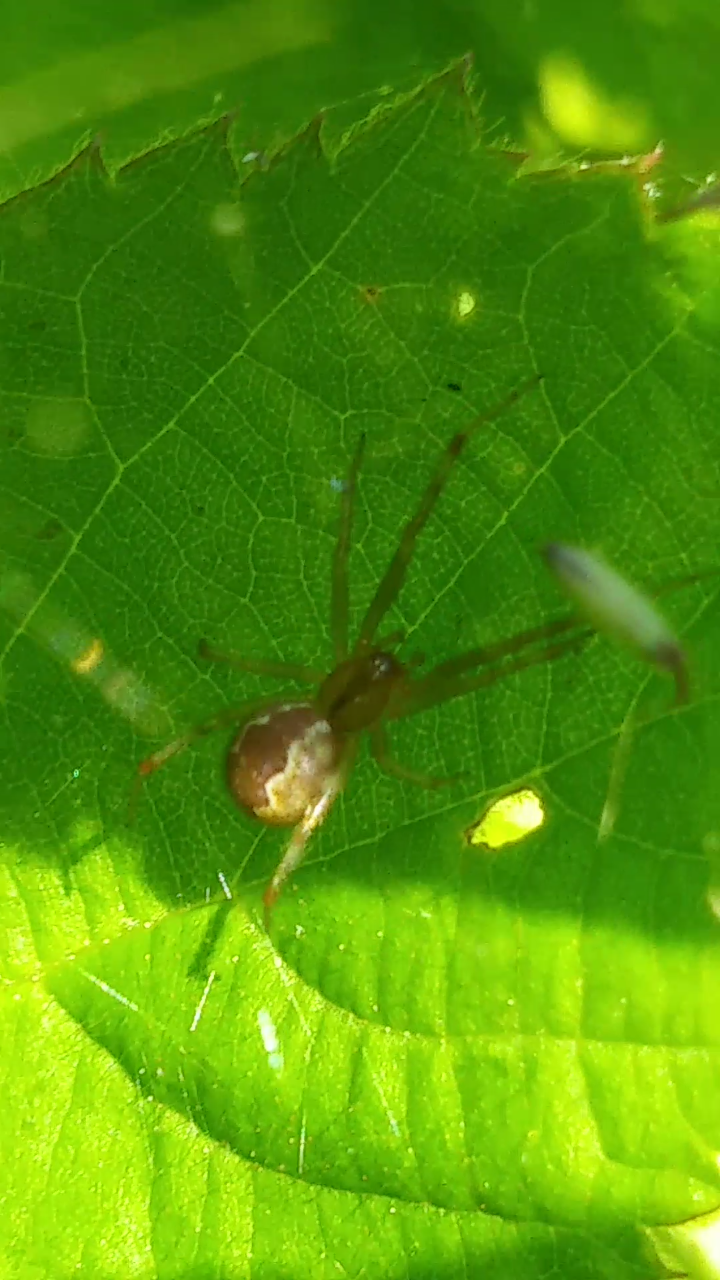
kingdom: Animalia
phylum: Arthropoda
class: Arachnida
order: Araneae
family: Theridiidae
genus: Anelosimus
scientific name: Anelosimus studiosus
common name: Cobweb spiders
